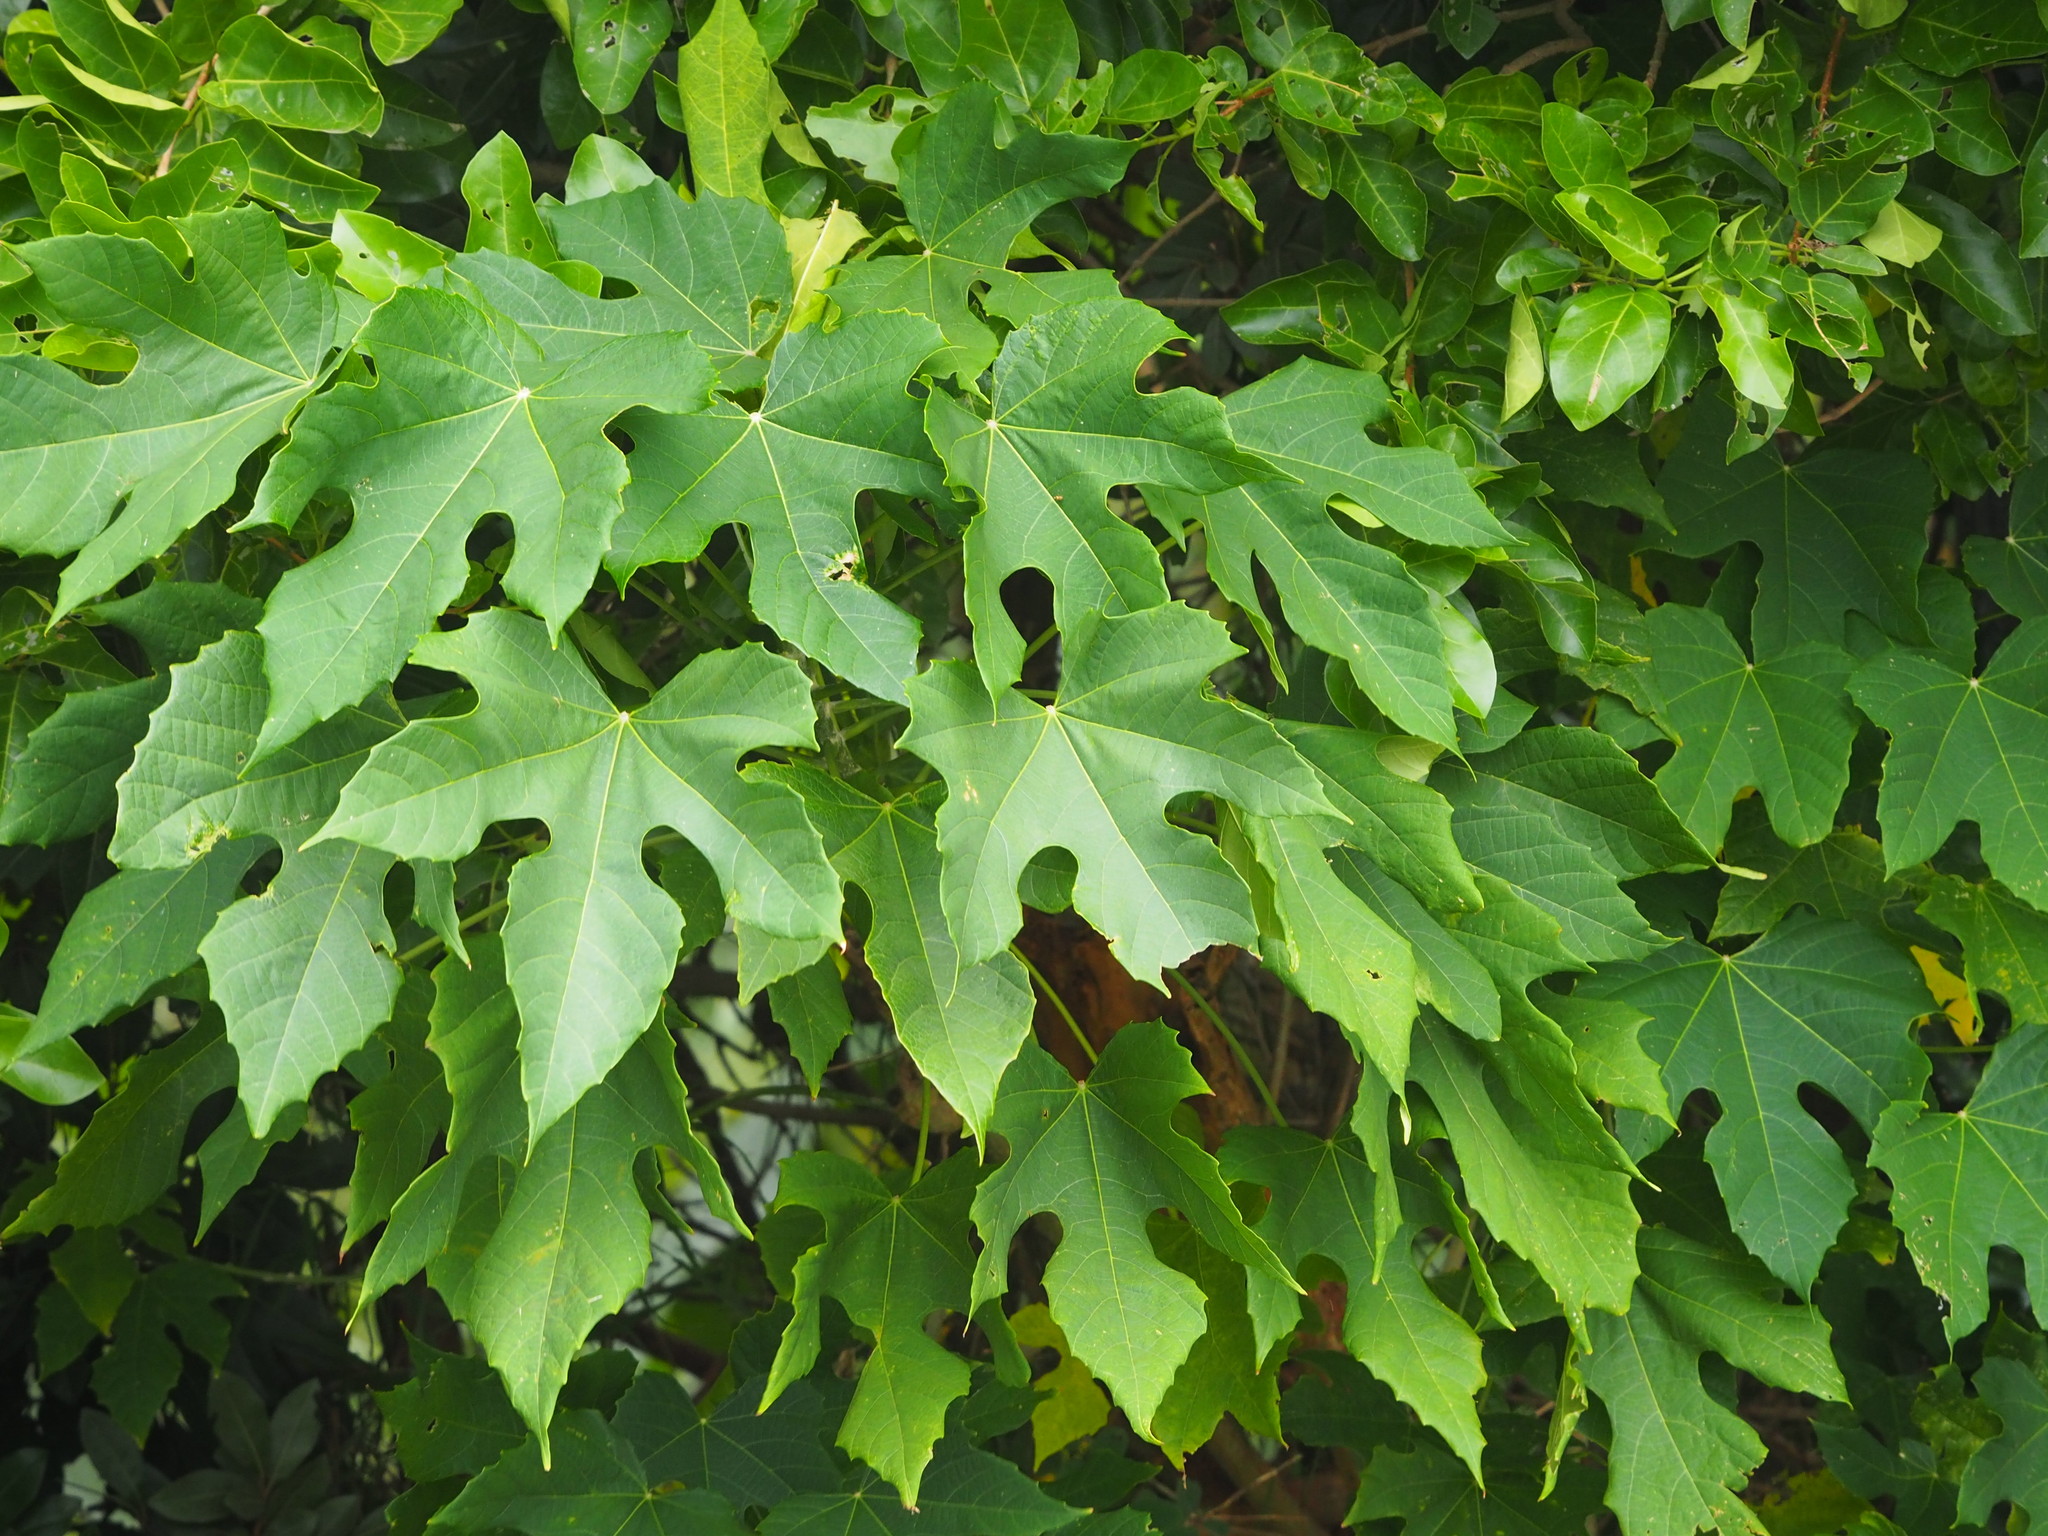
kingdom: Plantae
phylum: Tracheophyta
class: Magnoliopsida
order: Malpighiales
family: Euphorbiaceae
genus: Melanolepis
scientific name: Melanolepis multiglandulosa
